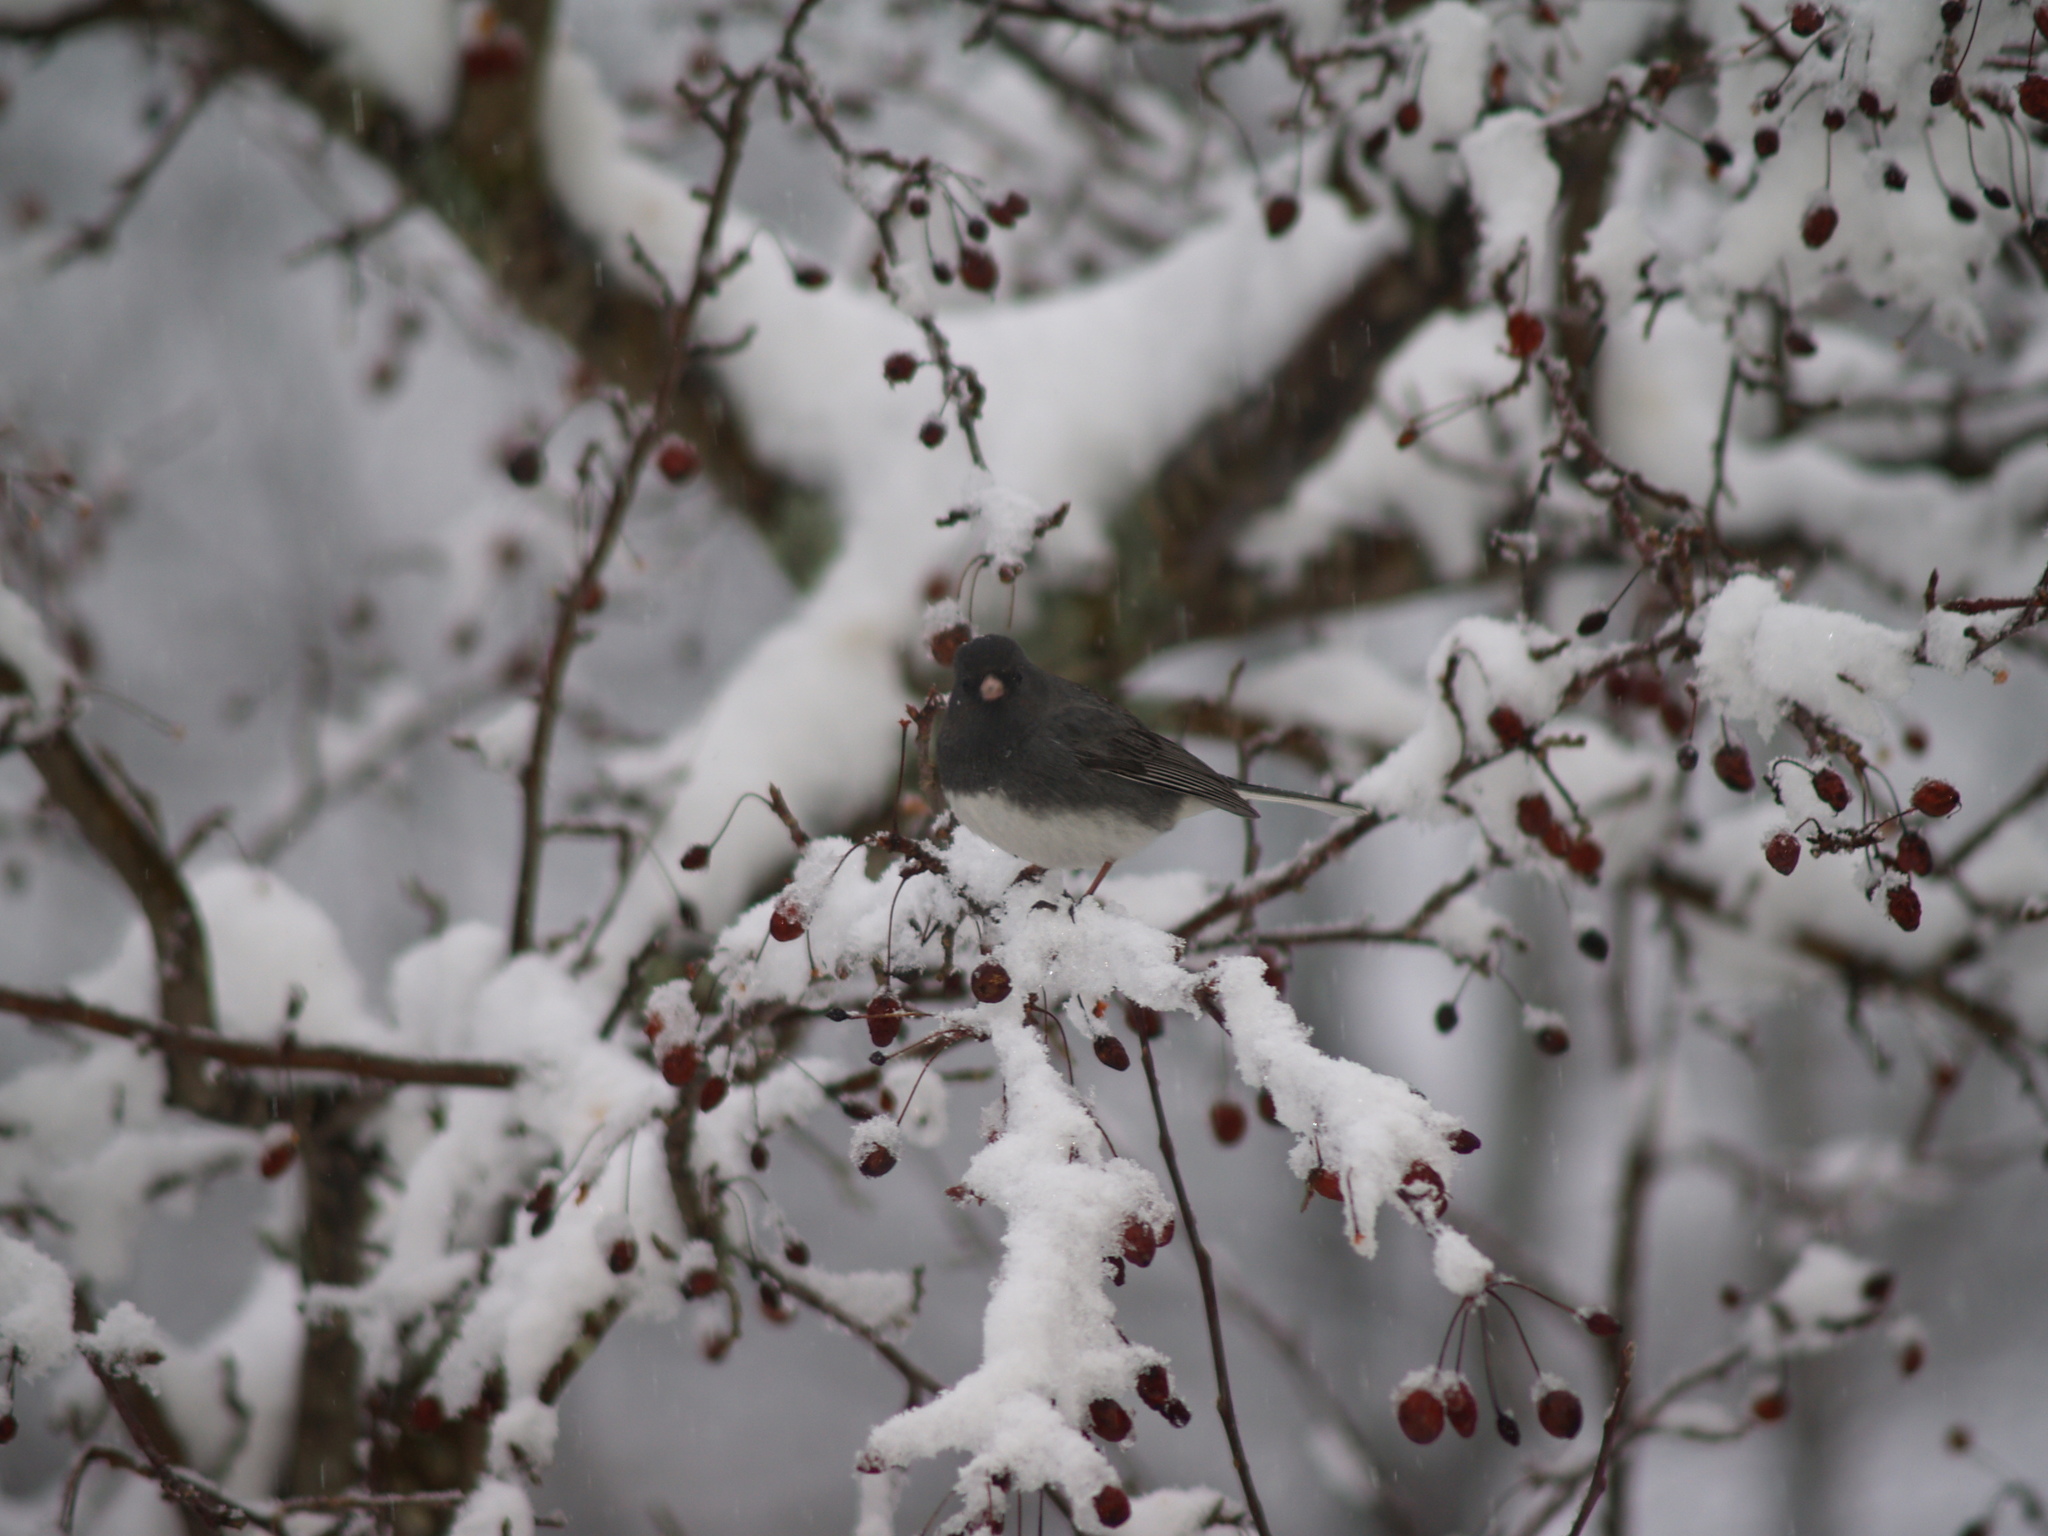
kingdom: Animalia
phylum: Chordata
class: Aves
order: Passeriformes
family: Passerellidae
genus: Junco
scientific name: Junco hyemalis
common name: Dark-eyed junco
